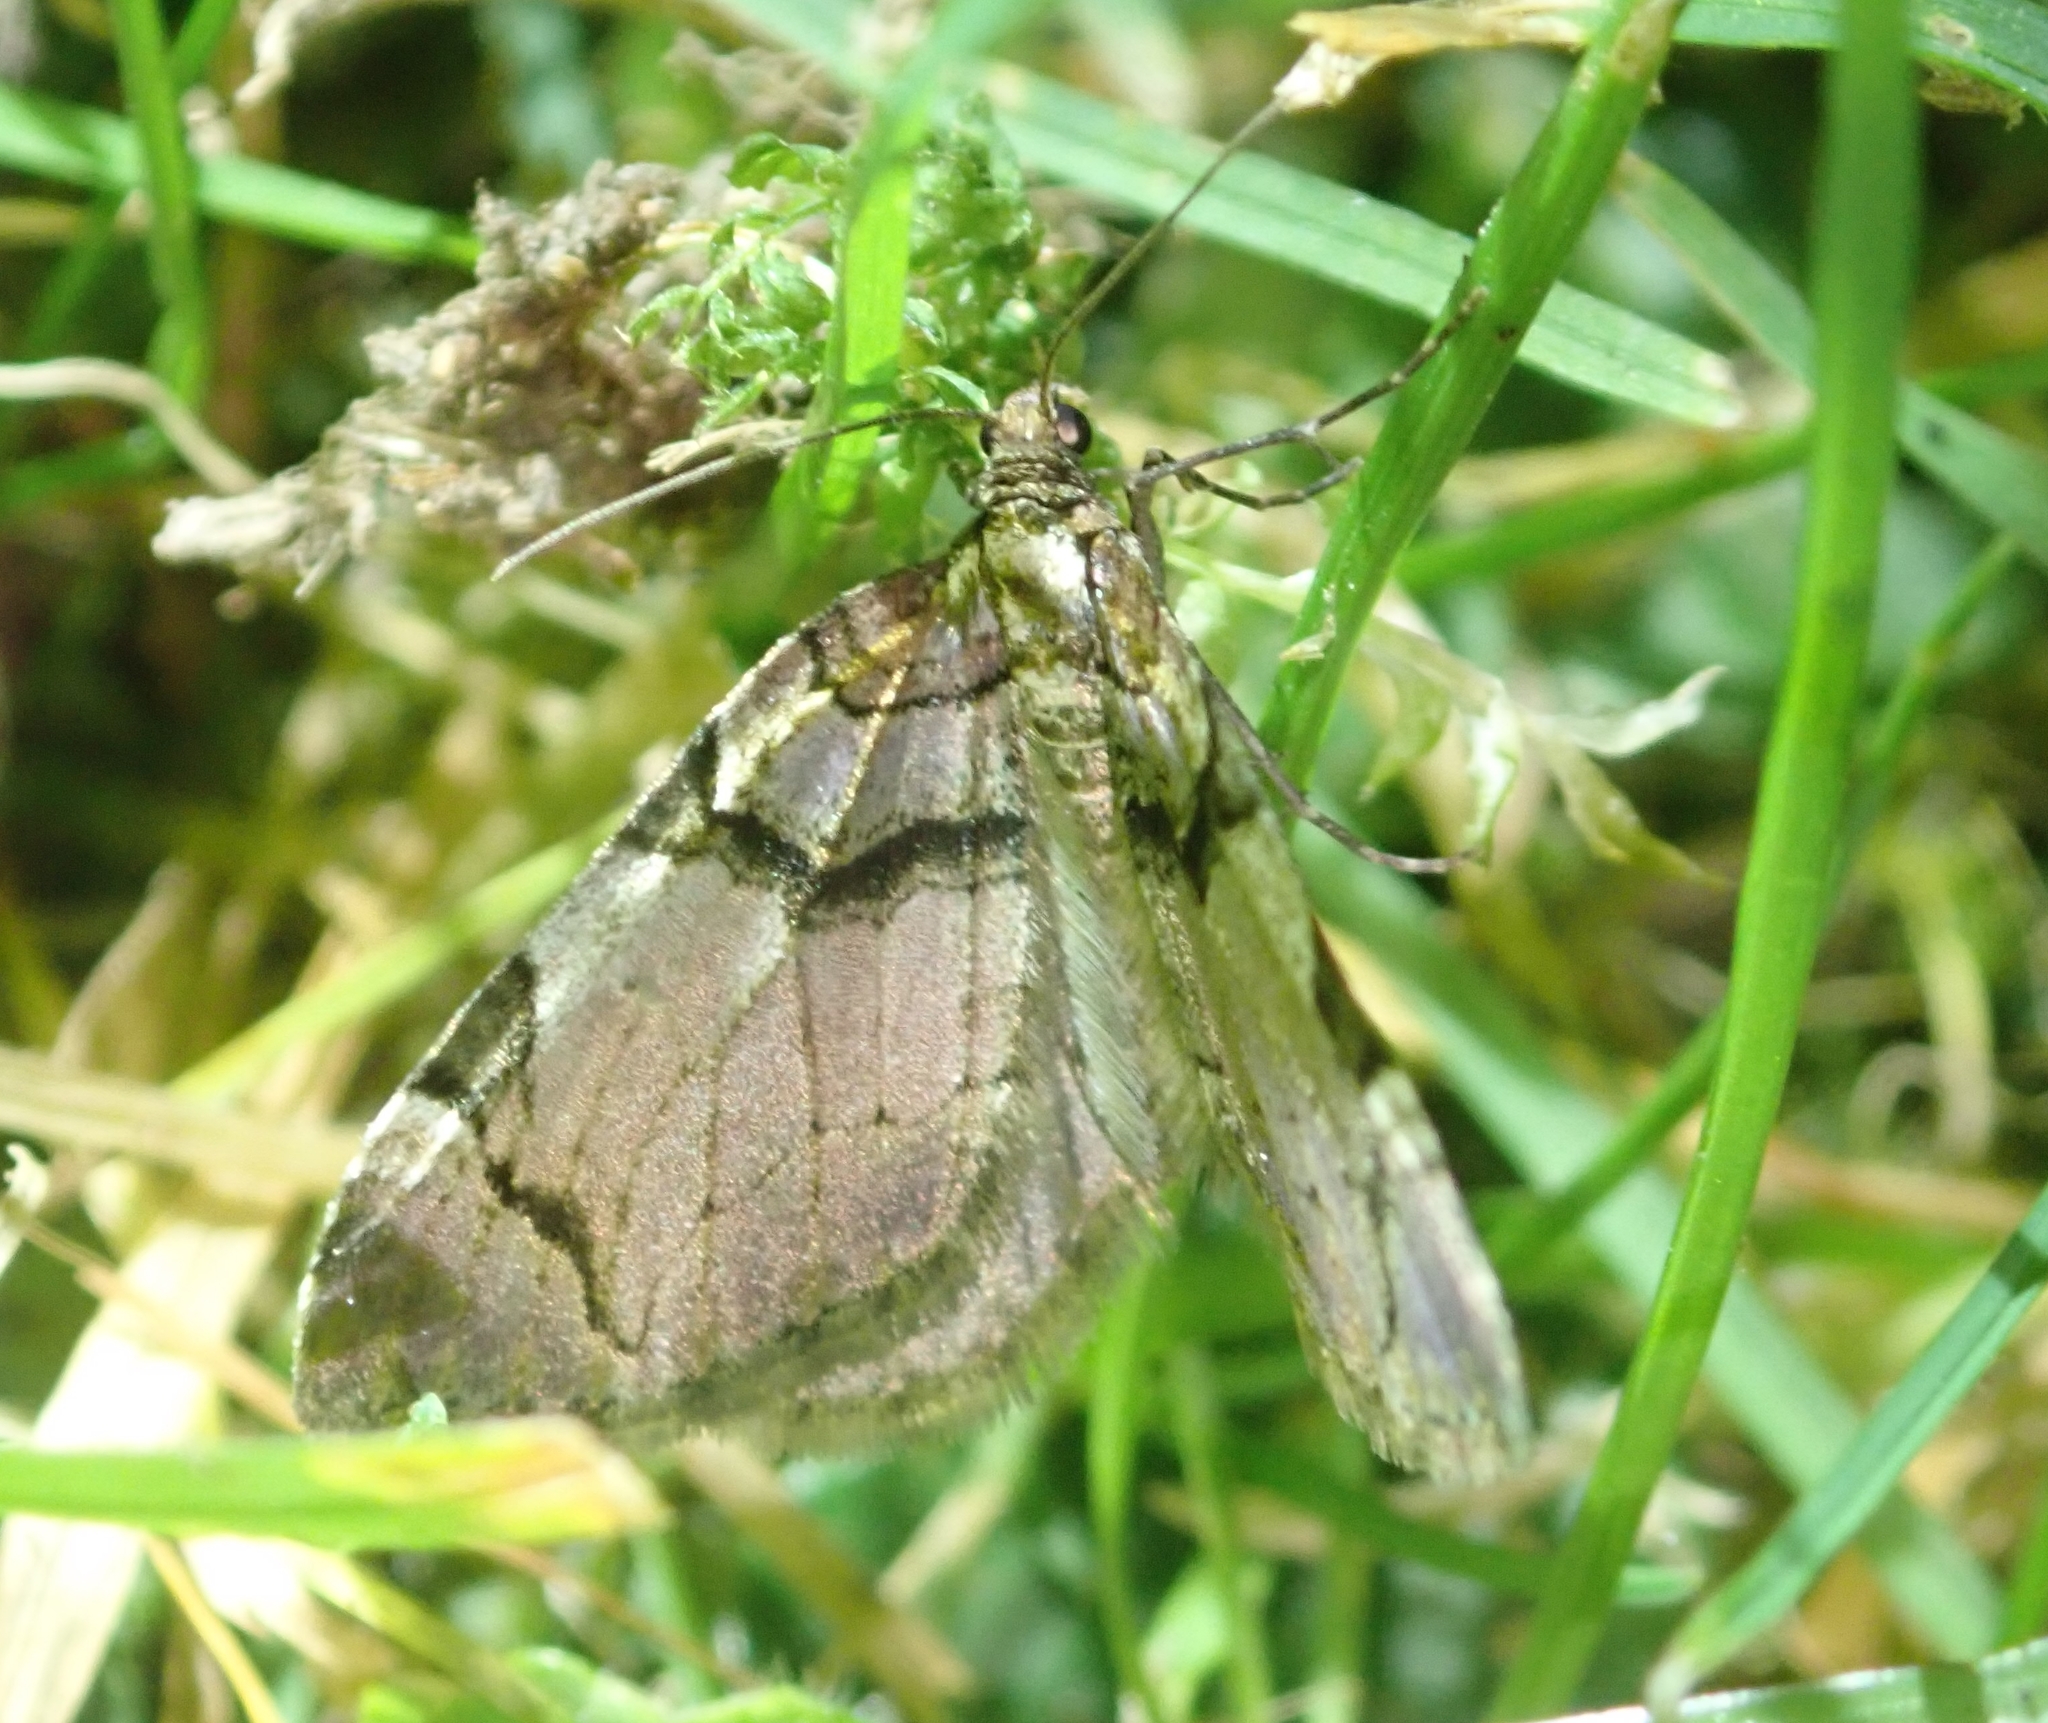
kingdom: Animalia
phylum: Arthropoda
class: Insecta
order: Lepidoptera
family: Geometridae
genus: Anticlea
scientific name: Anticlea derivata
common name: Streamer
